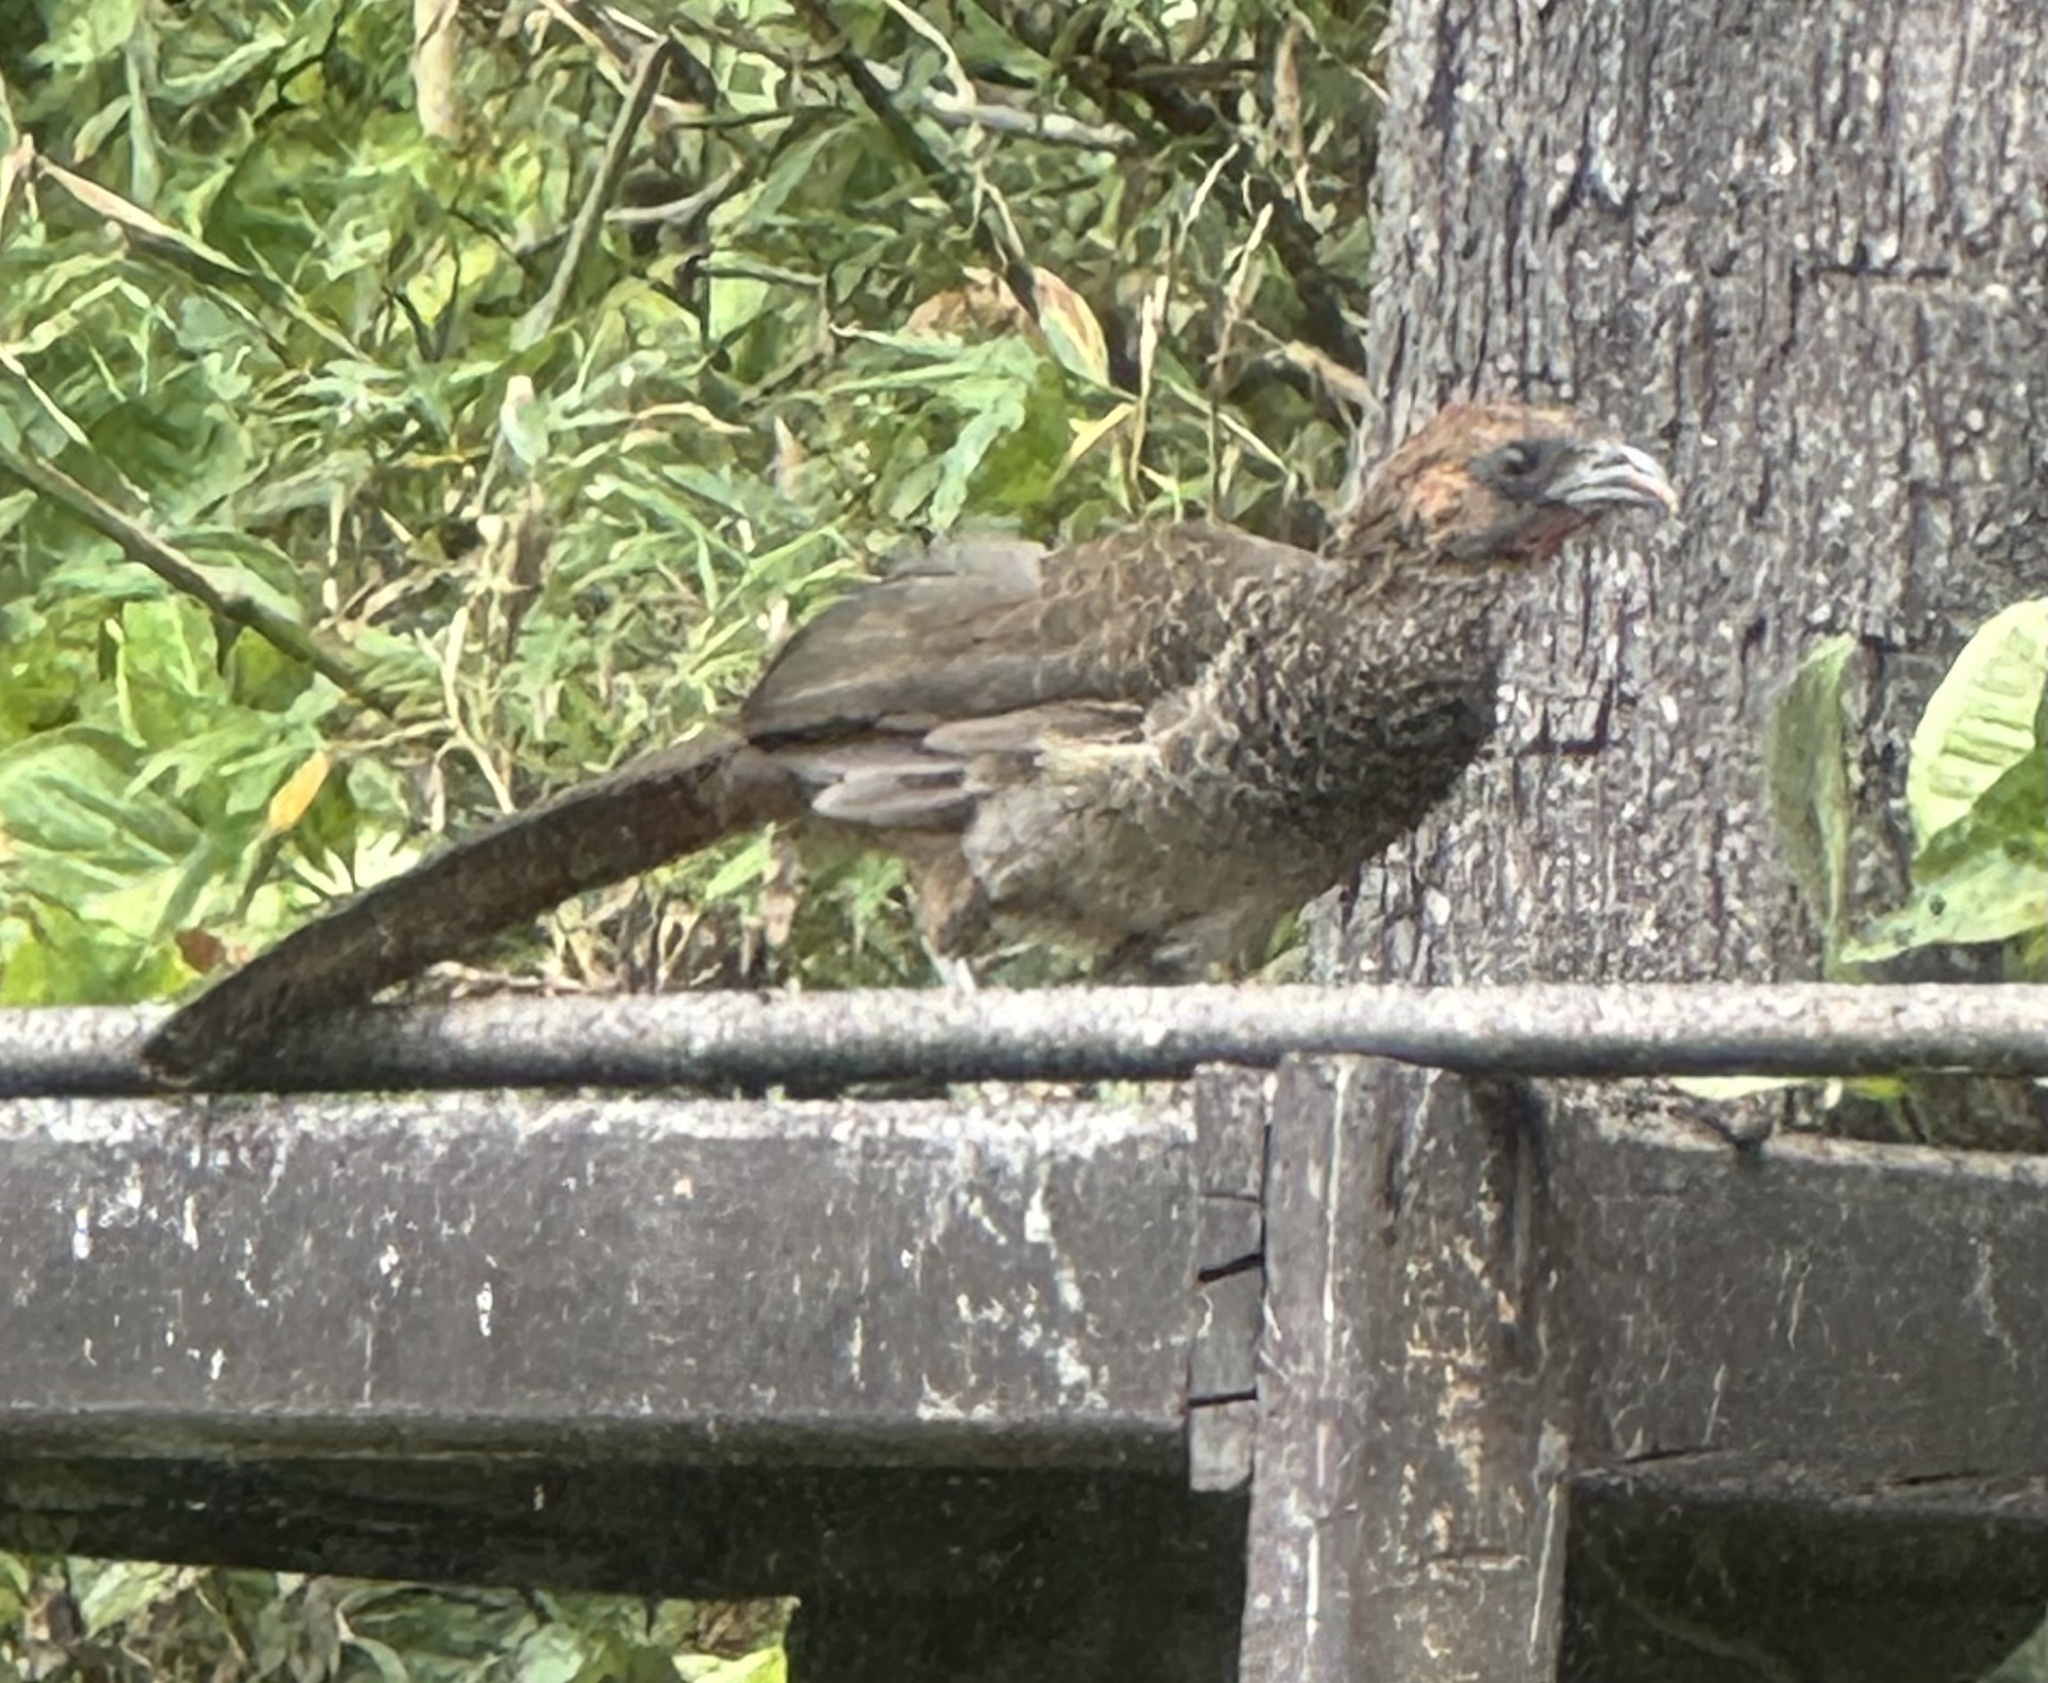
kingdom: Animalia
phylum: Chordata
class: Aves
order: Galliformes
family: Cracidae
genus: Ortalis
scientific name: Ortalis araucuan
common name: East brazilian chachalaca
